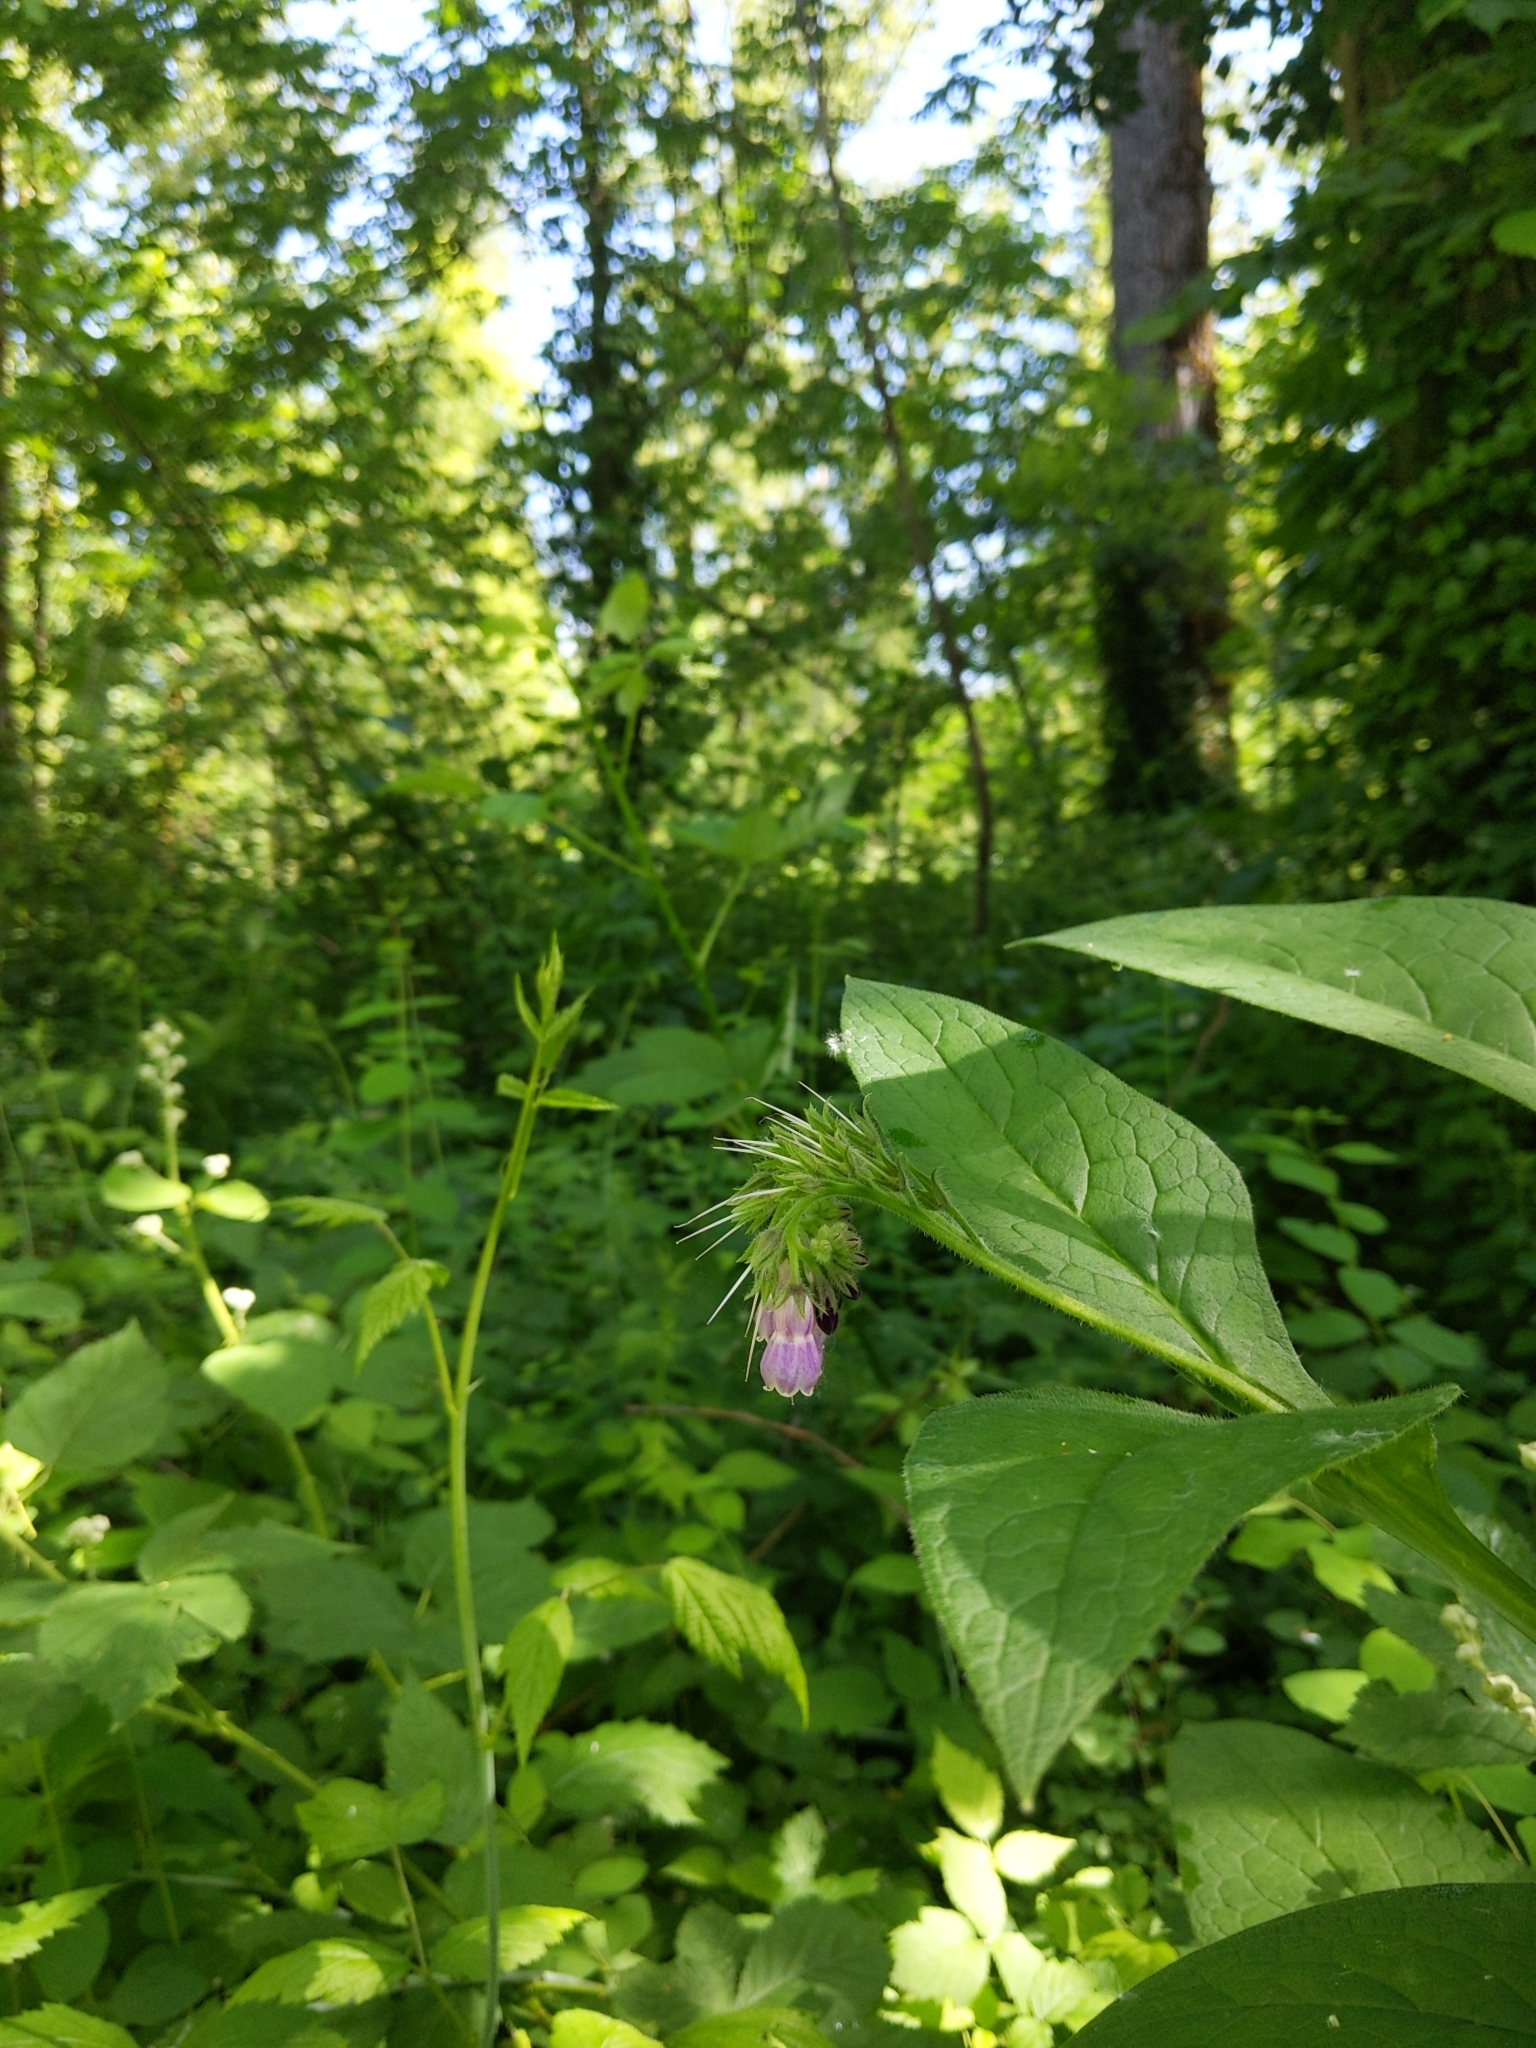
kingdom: Plantae
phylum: Tracheophyta
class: Magnoliopsida
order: Boraginales
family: Boraginaceae
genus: Symphytum
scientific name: Symphytum officinale
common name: Common comfrey
